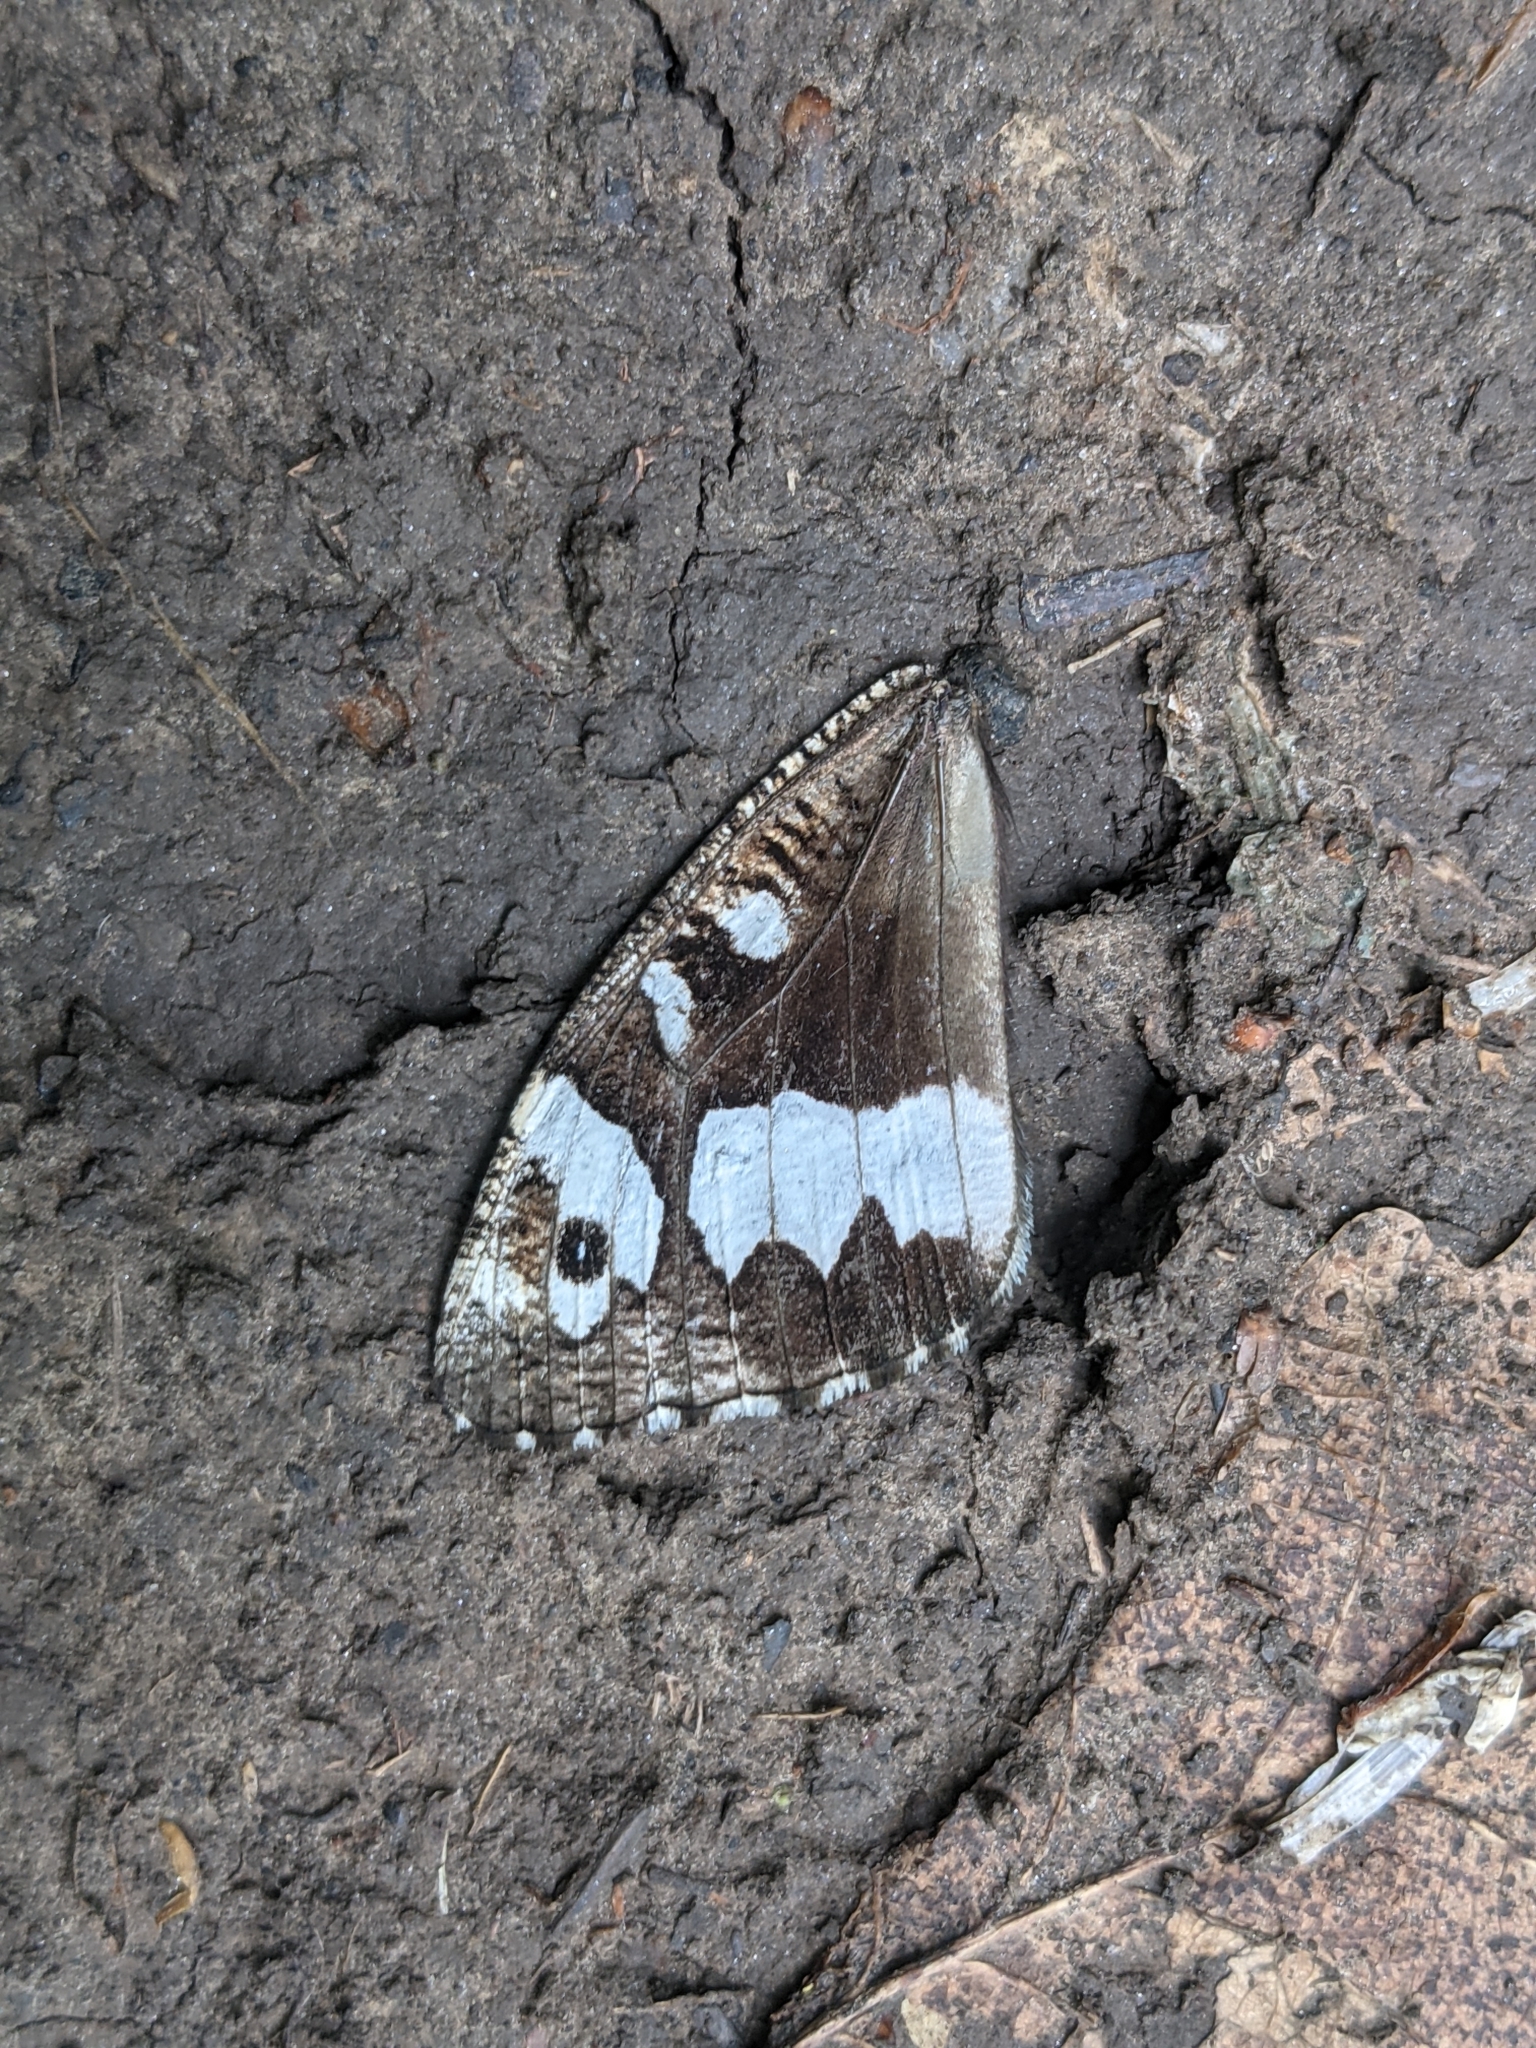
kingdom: Animalia
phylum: Arthropoda
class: Insecta
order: Lepidoptera
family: Lycaenidae
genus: Loweia
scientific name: Loweia tityrus
